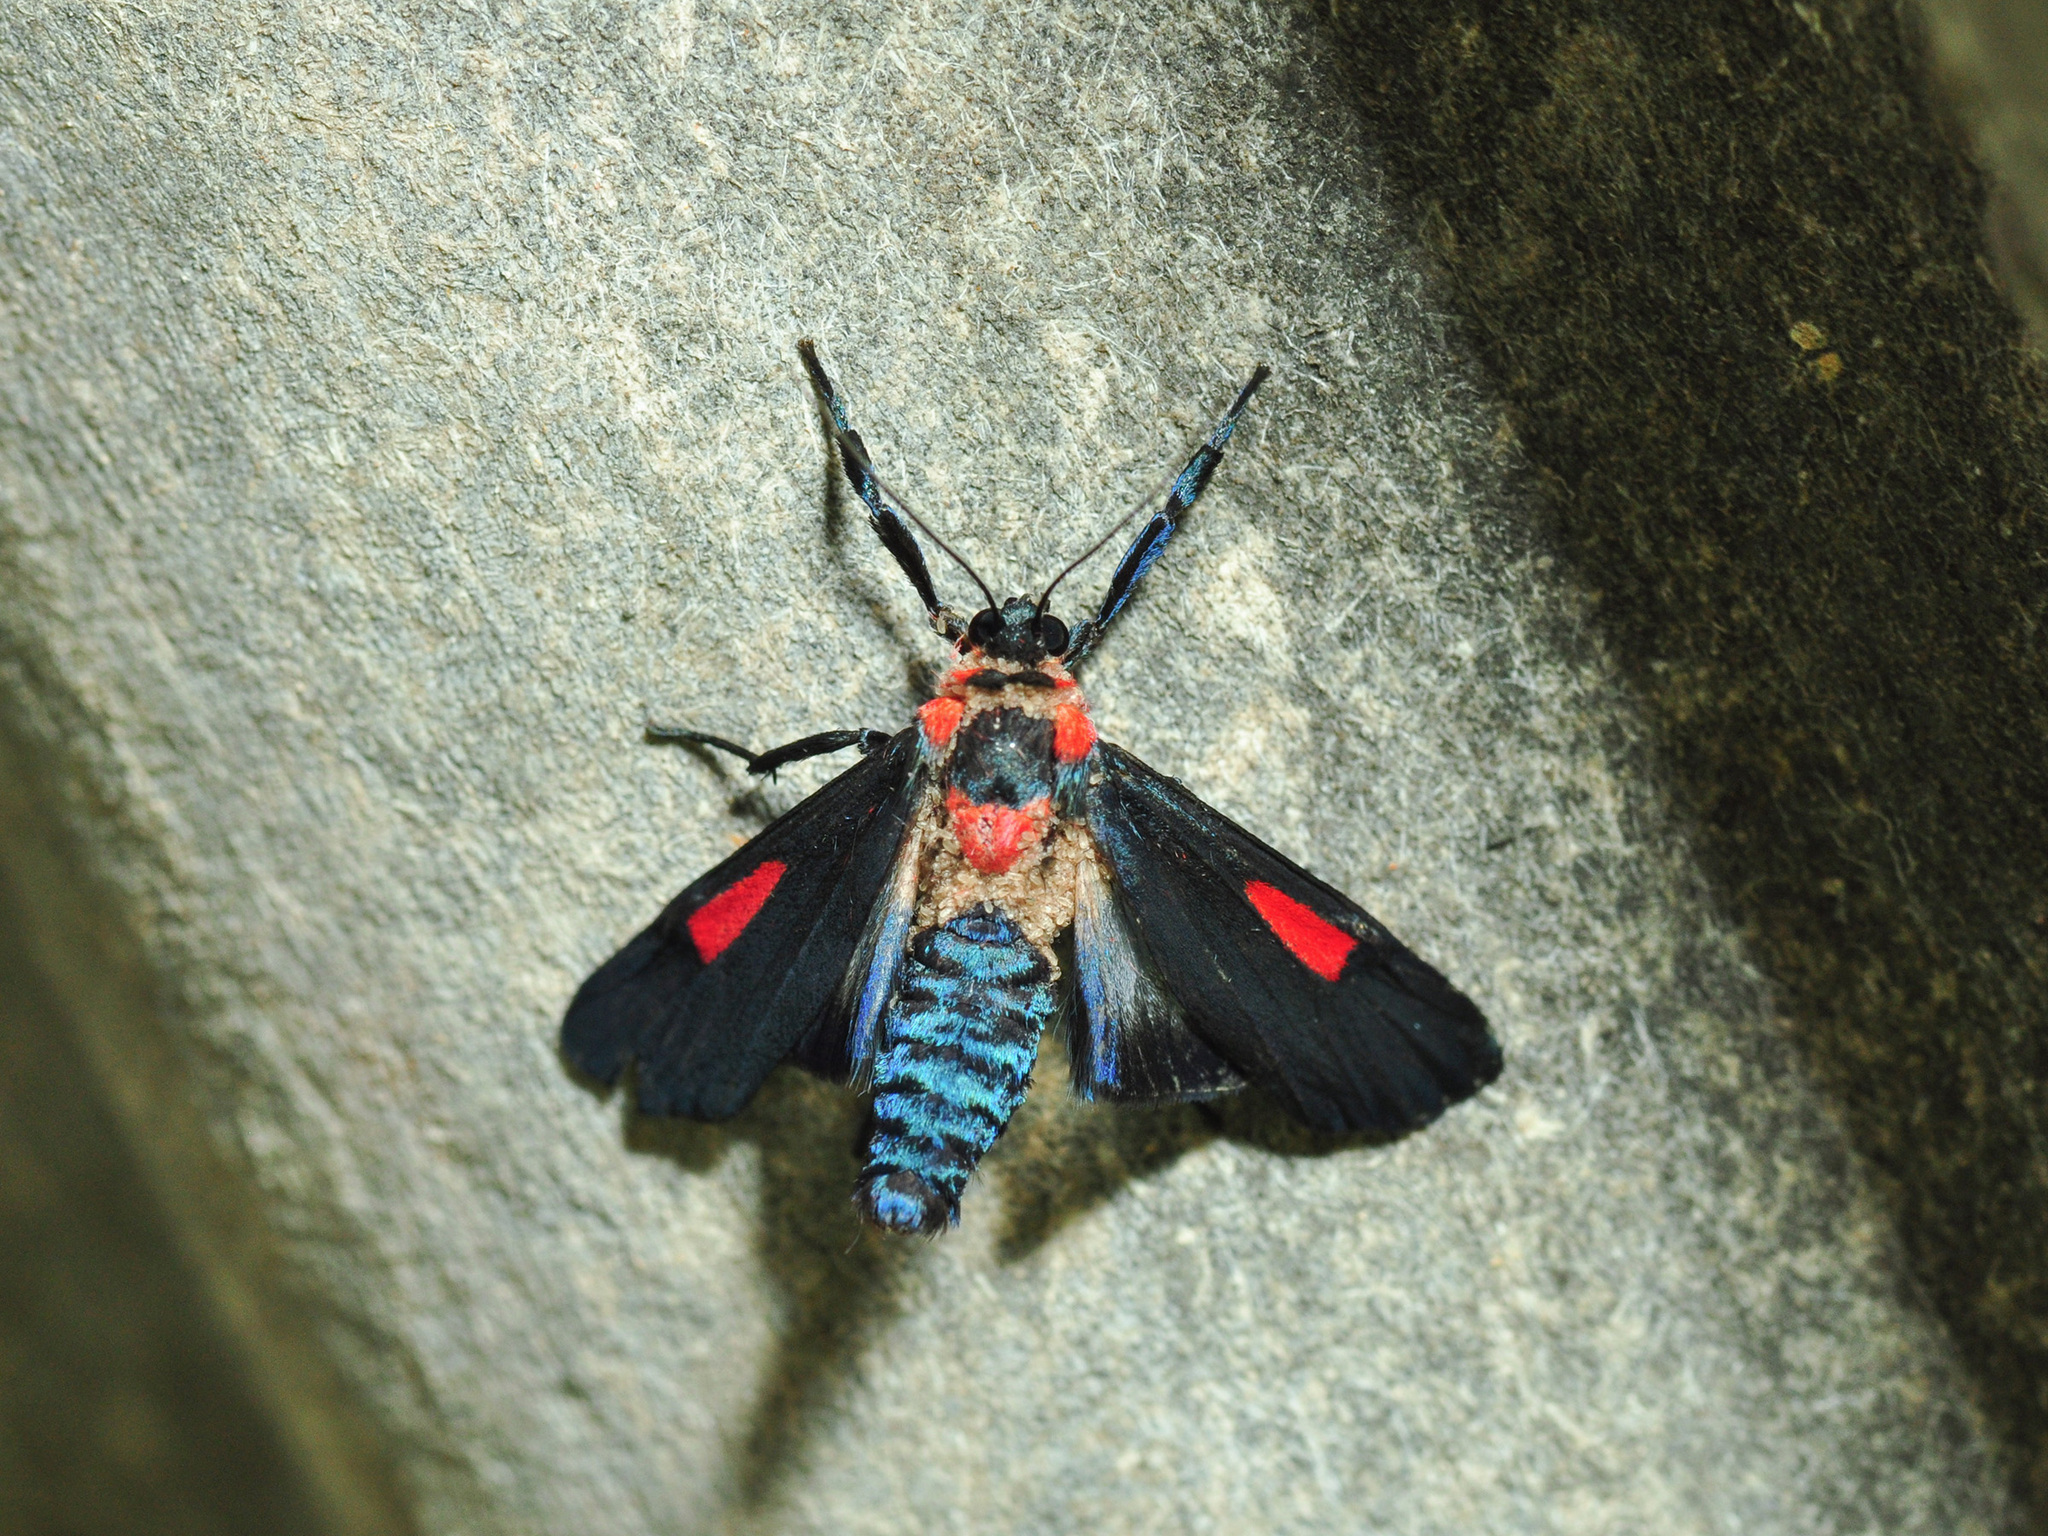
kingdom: Animalia
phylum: Arthropoda
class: Insecta
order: Lepidoptera
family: Erebidae
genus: Cyana
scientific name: Cyana tettigonioides
